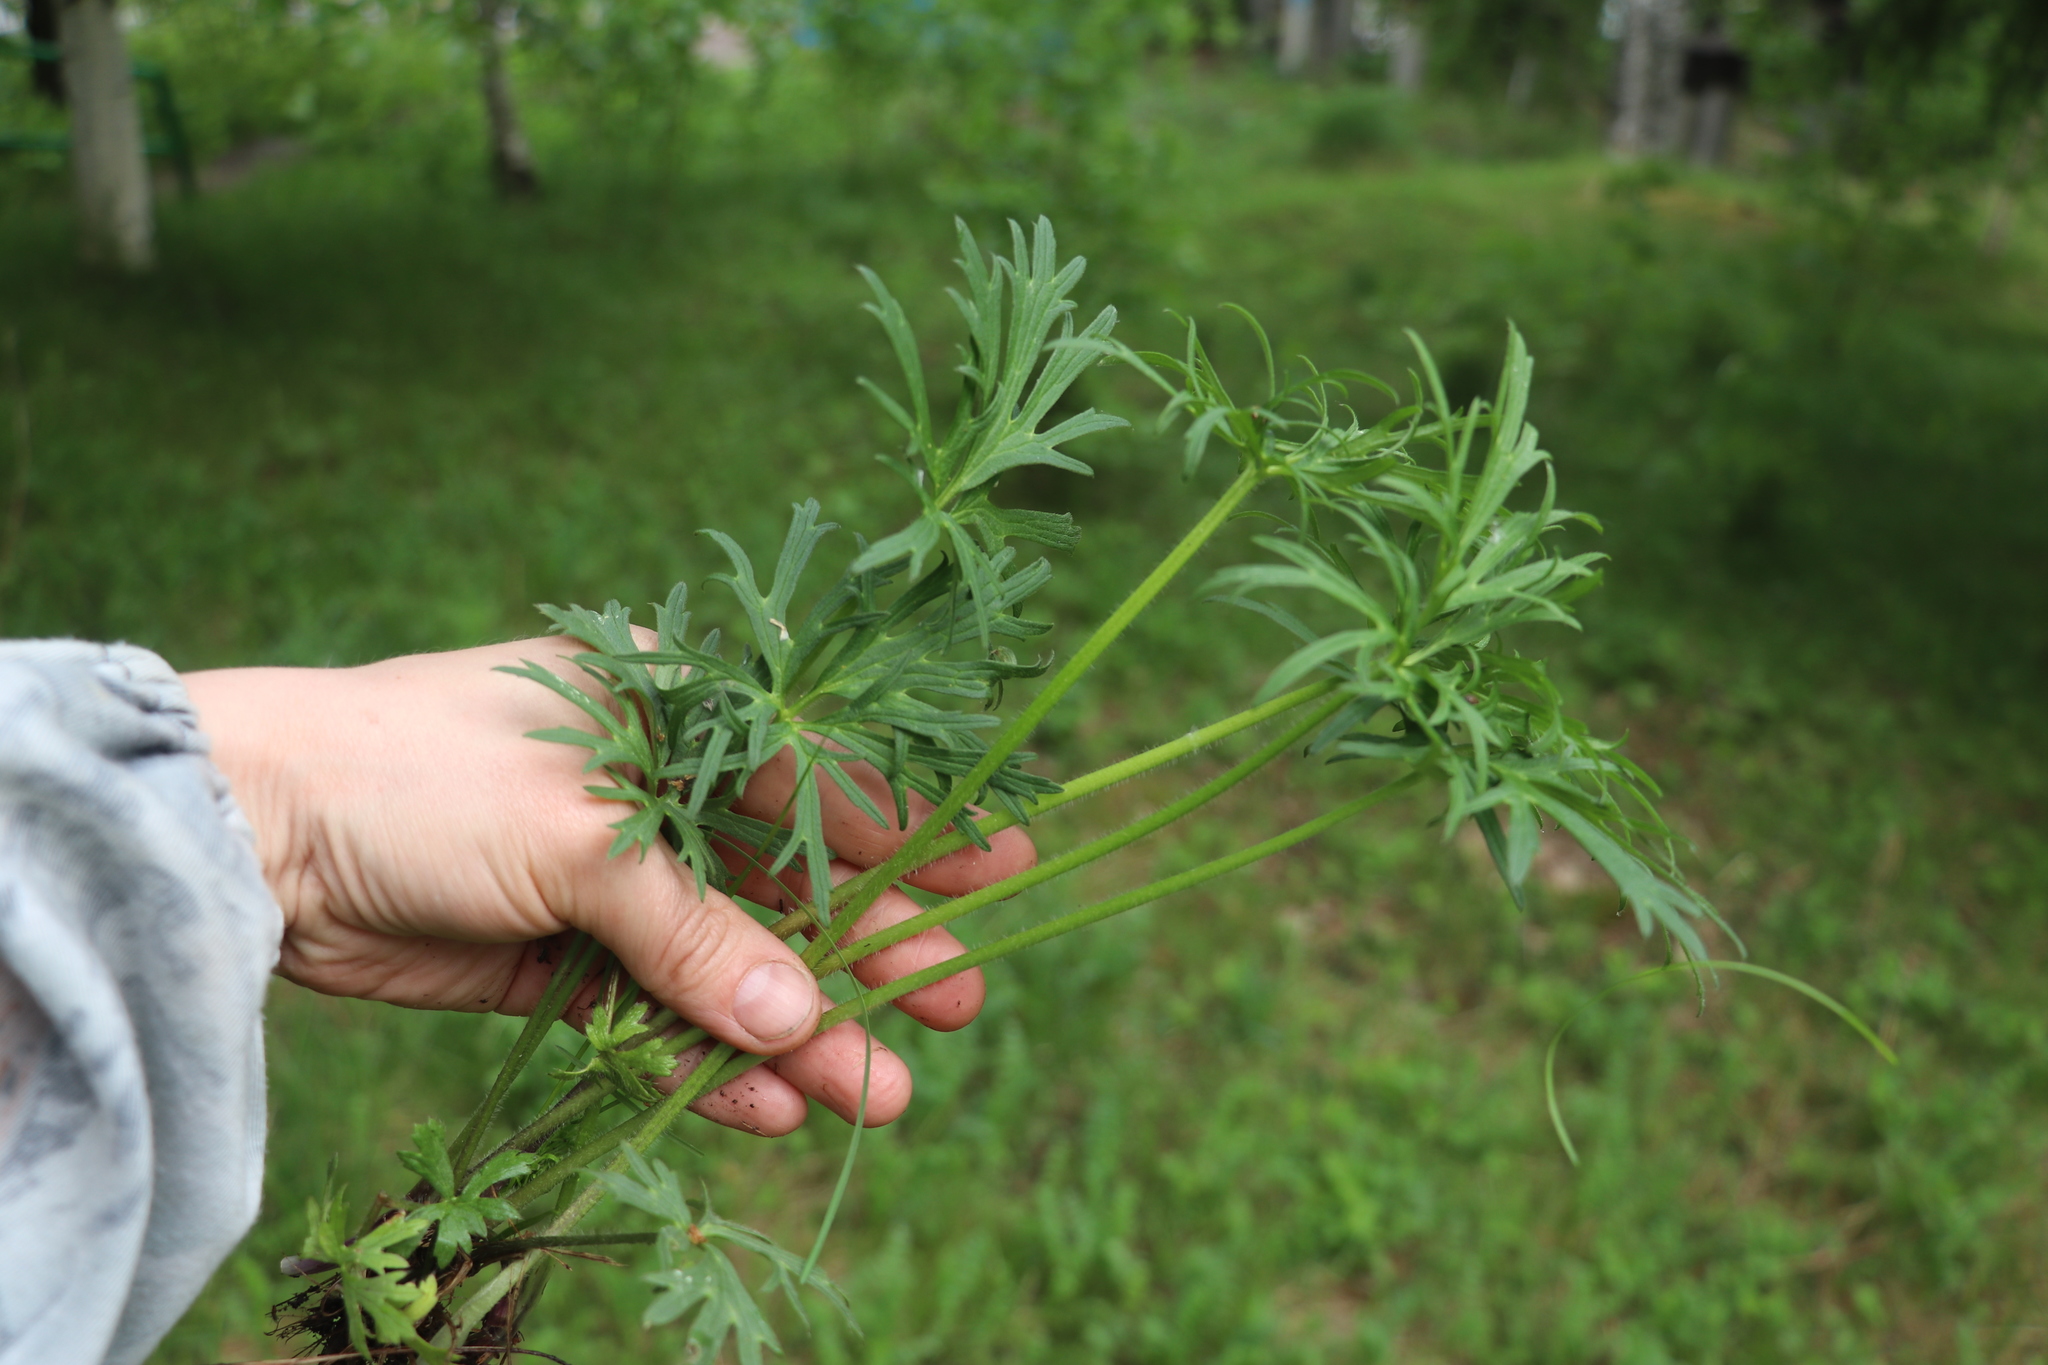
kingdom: Plantae
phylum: Tracheophyta
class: Magnoliopsida
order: Ranunculales
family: Ranunculaceae
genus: Ranunculus
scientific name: Ranunculus polyanthemos
